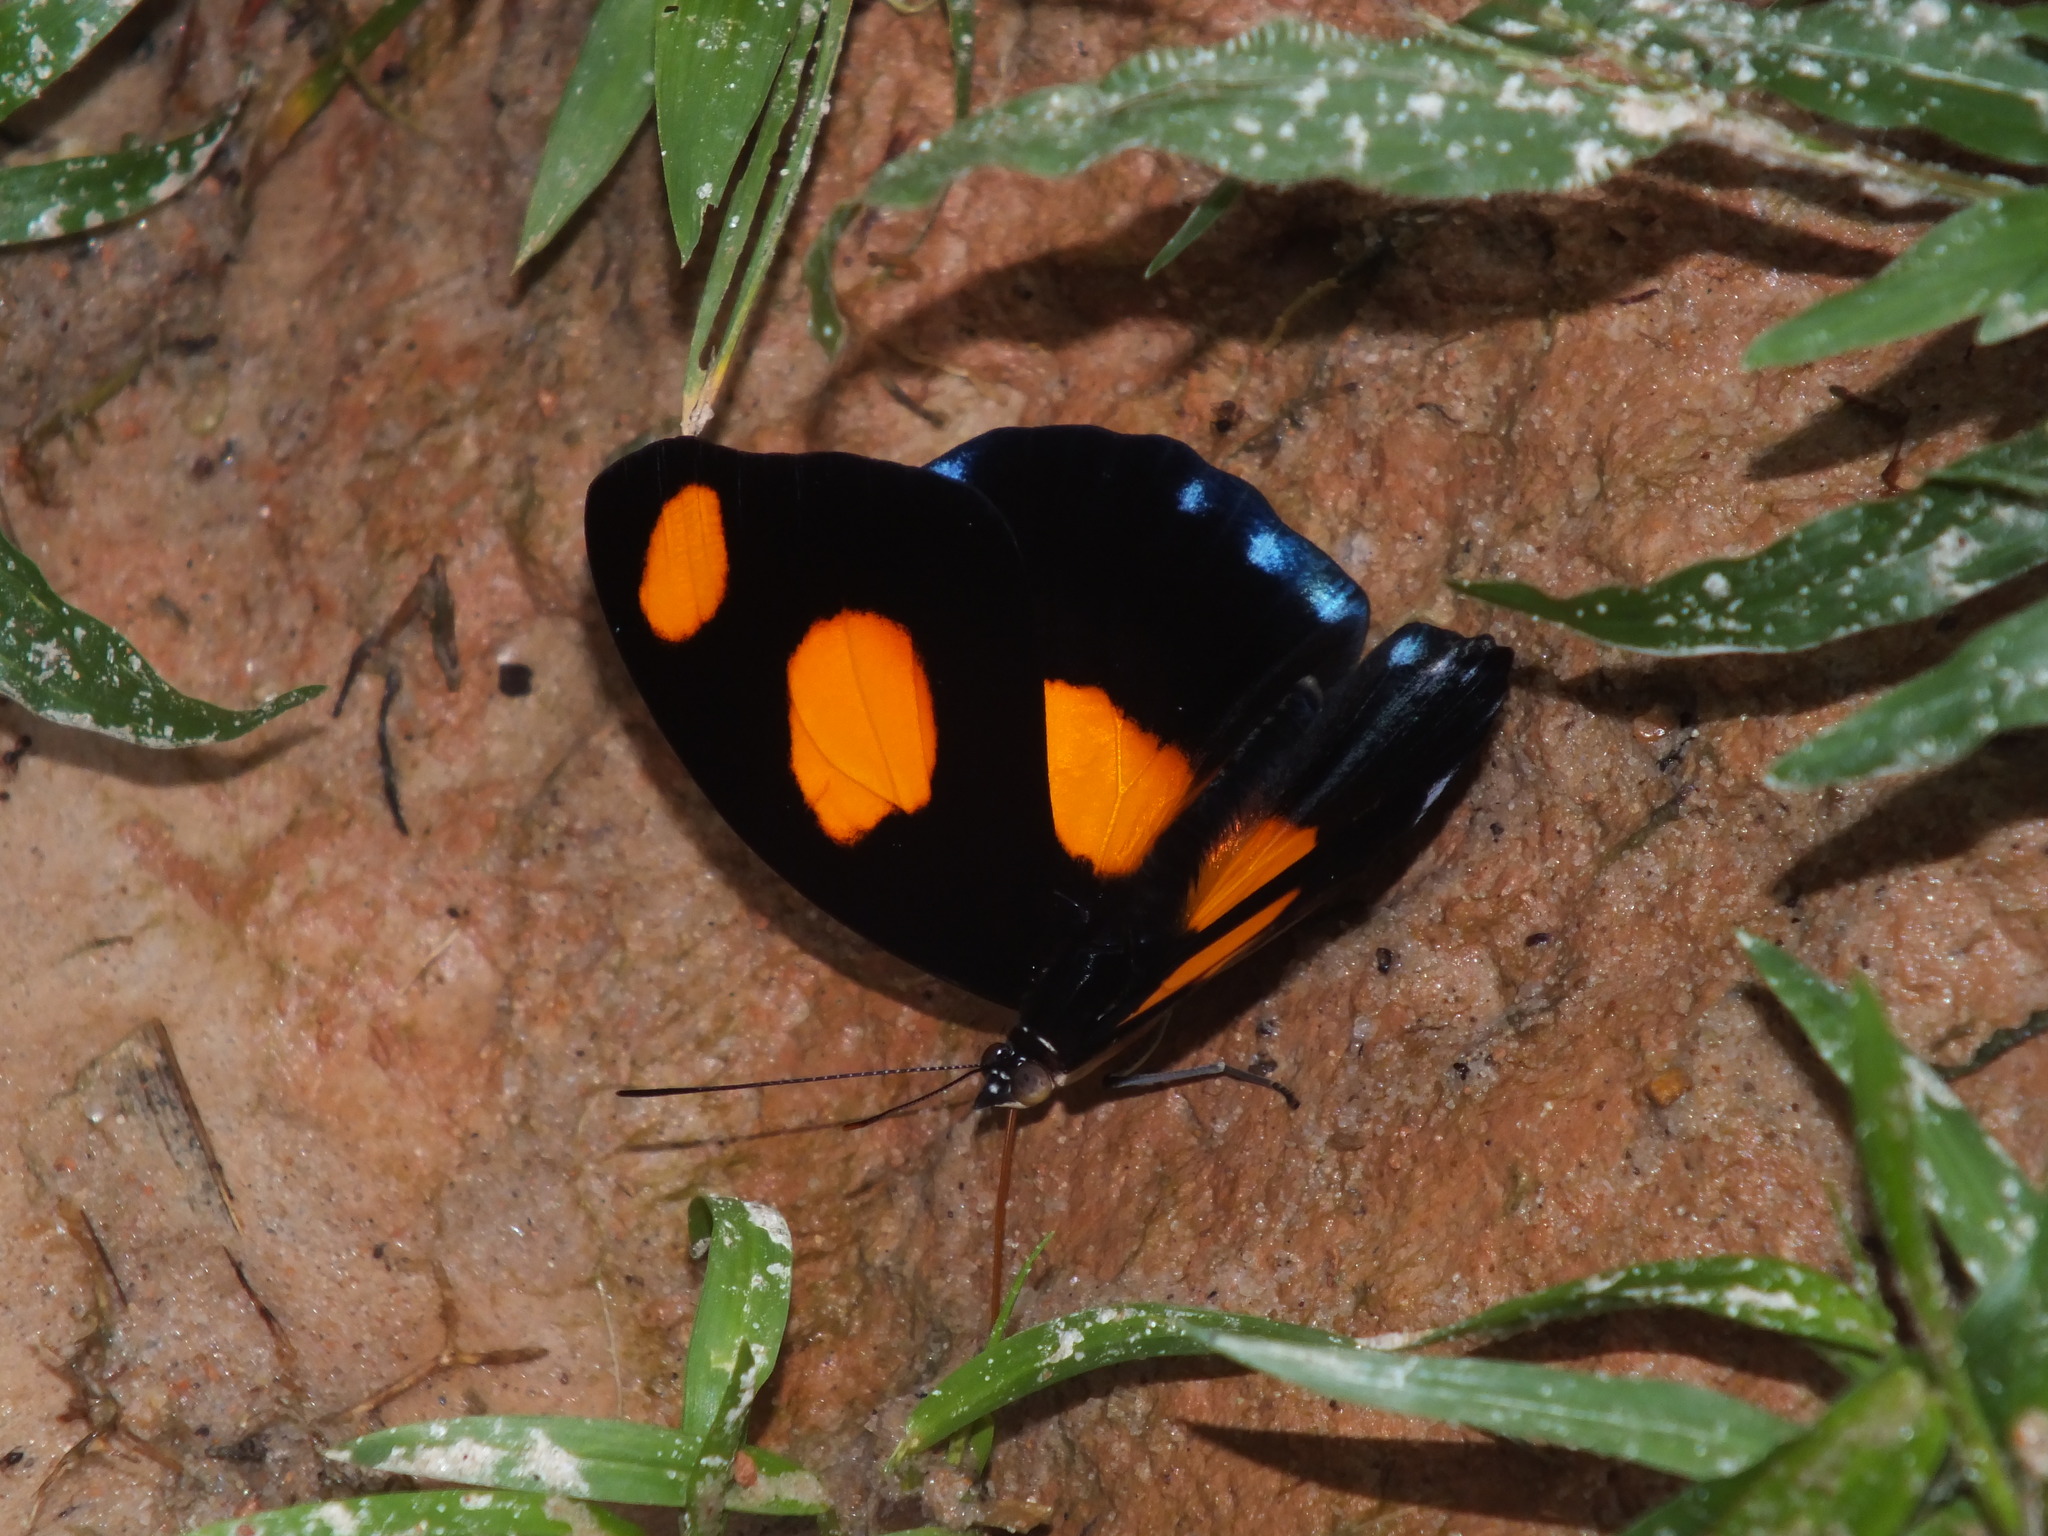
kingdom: Animalia
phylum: Arthropoda
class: Insecta
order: Lepidoptera
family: Nymphalidae
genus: Catonephele
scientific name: Catonephele numilia
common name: Blue-frosted banner
